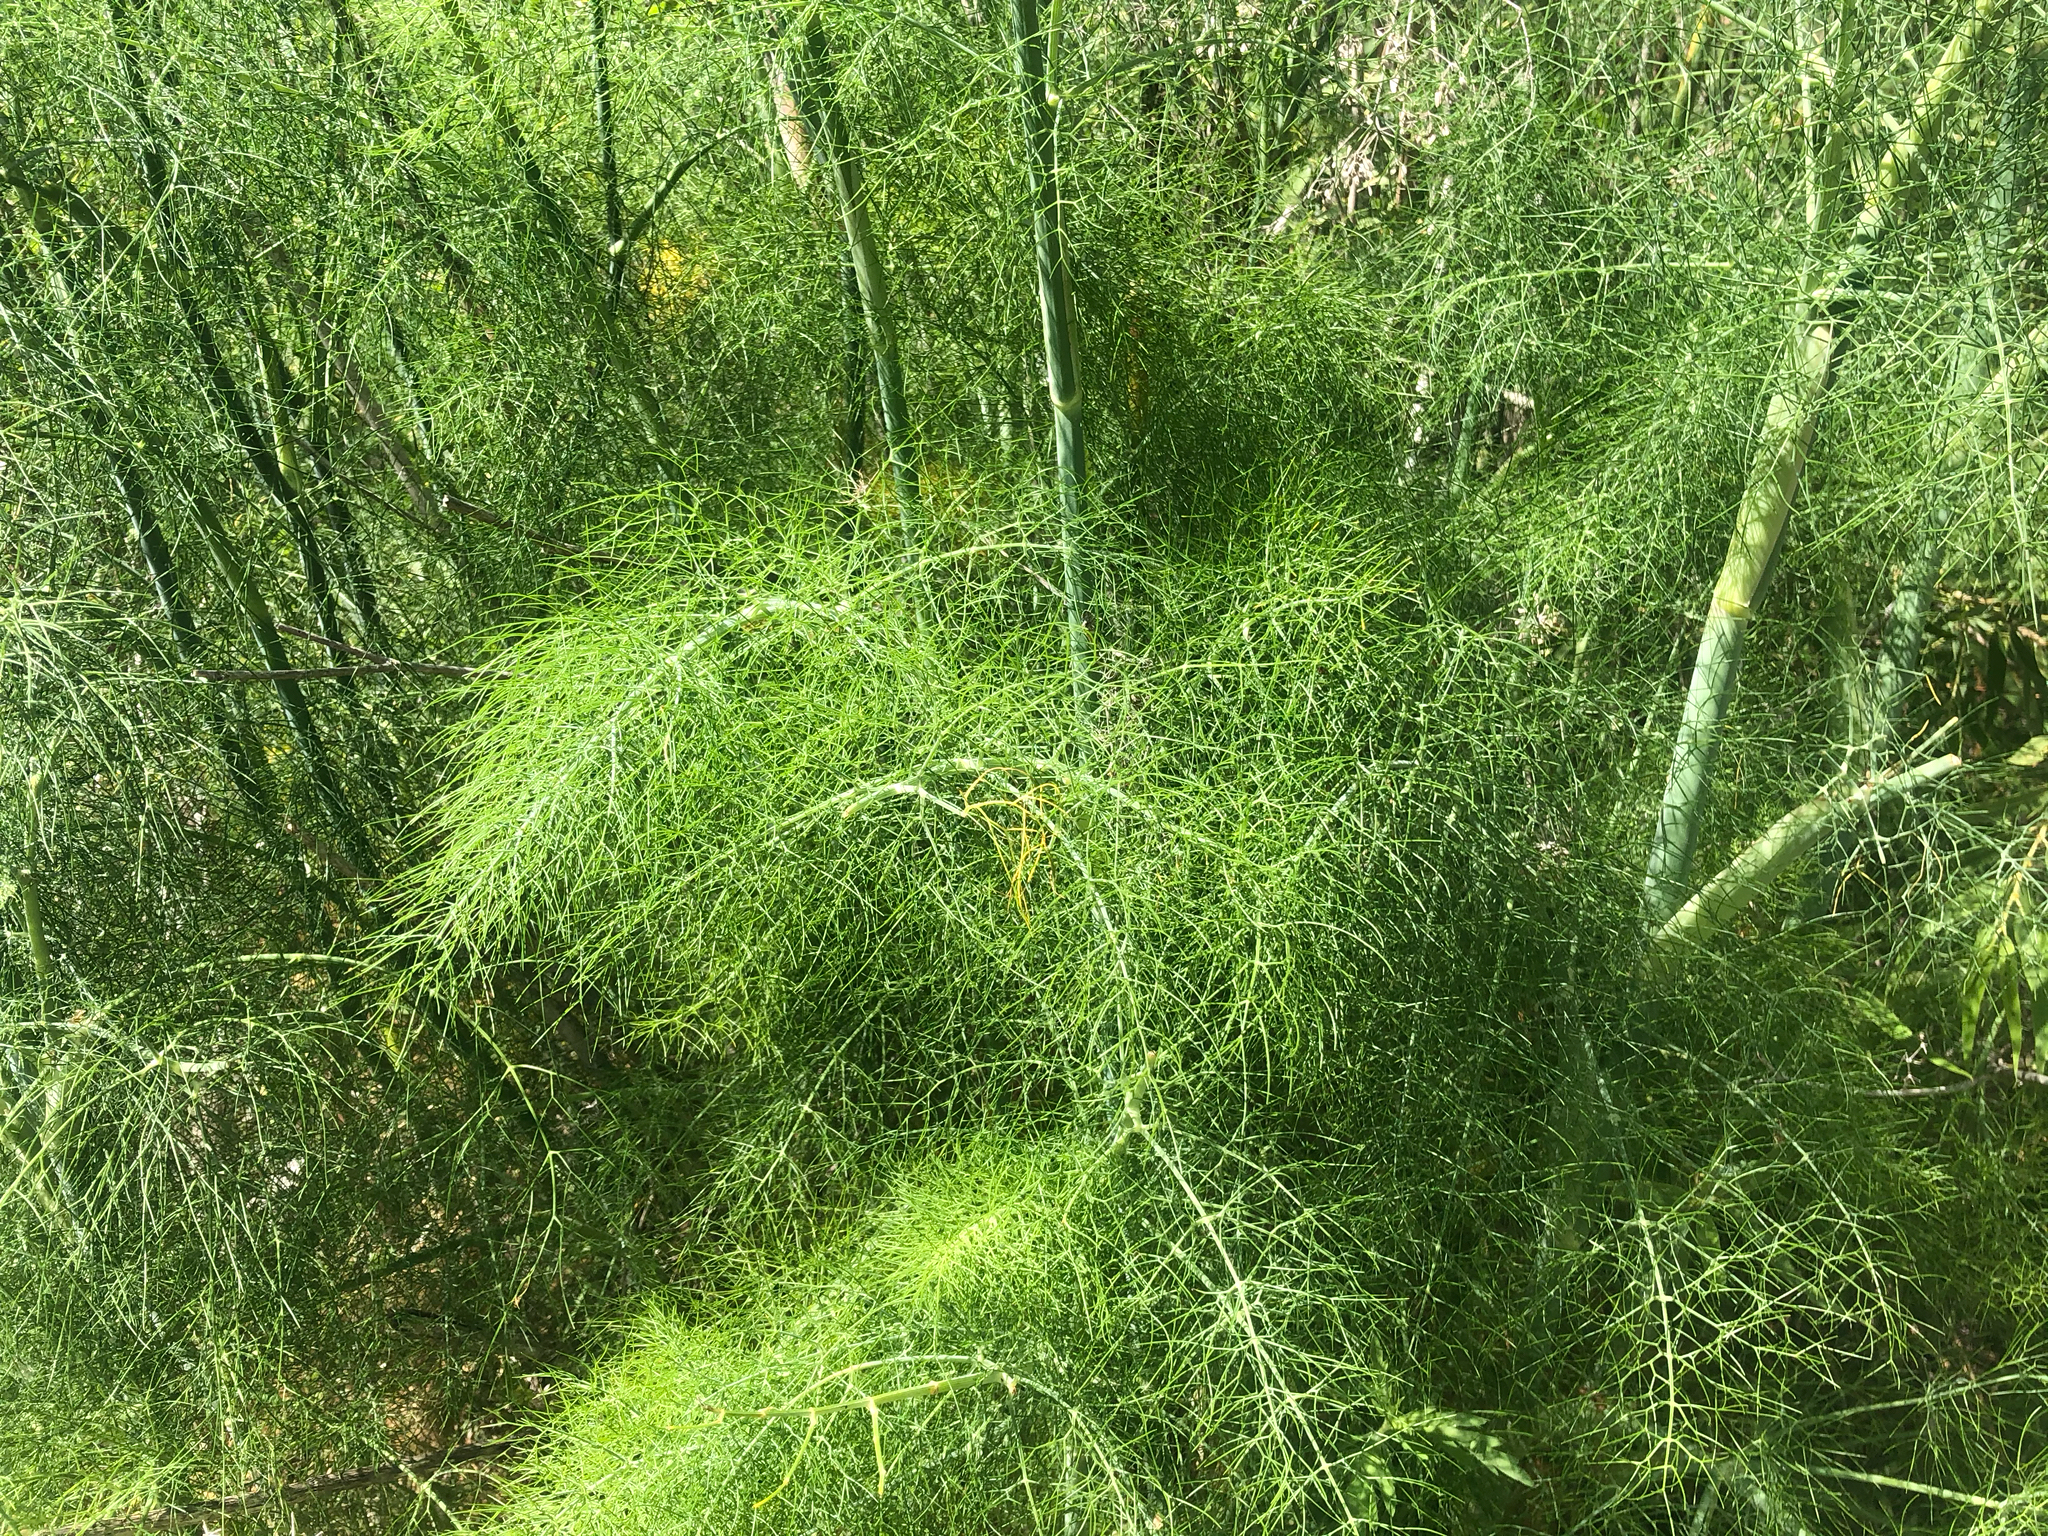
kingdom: Plantae
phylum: Tracheophyta
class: Magnoliopsida
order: Apiales
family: Apiaceae
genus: Foeniculum
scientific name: Foeniculum vulgare
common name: Fennel
